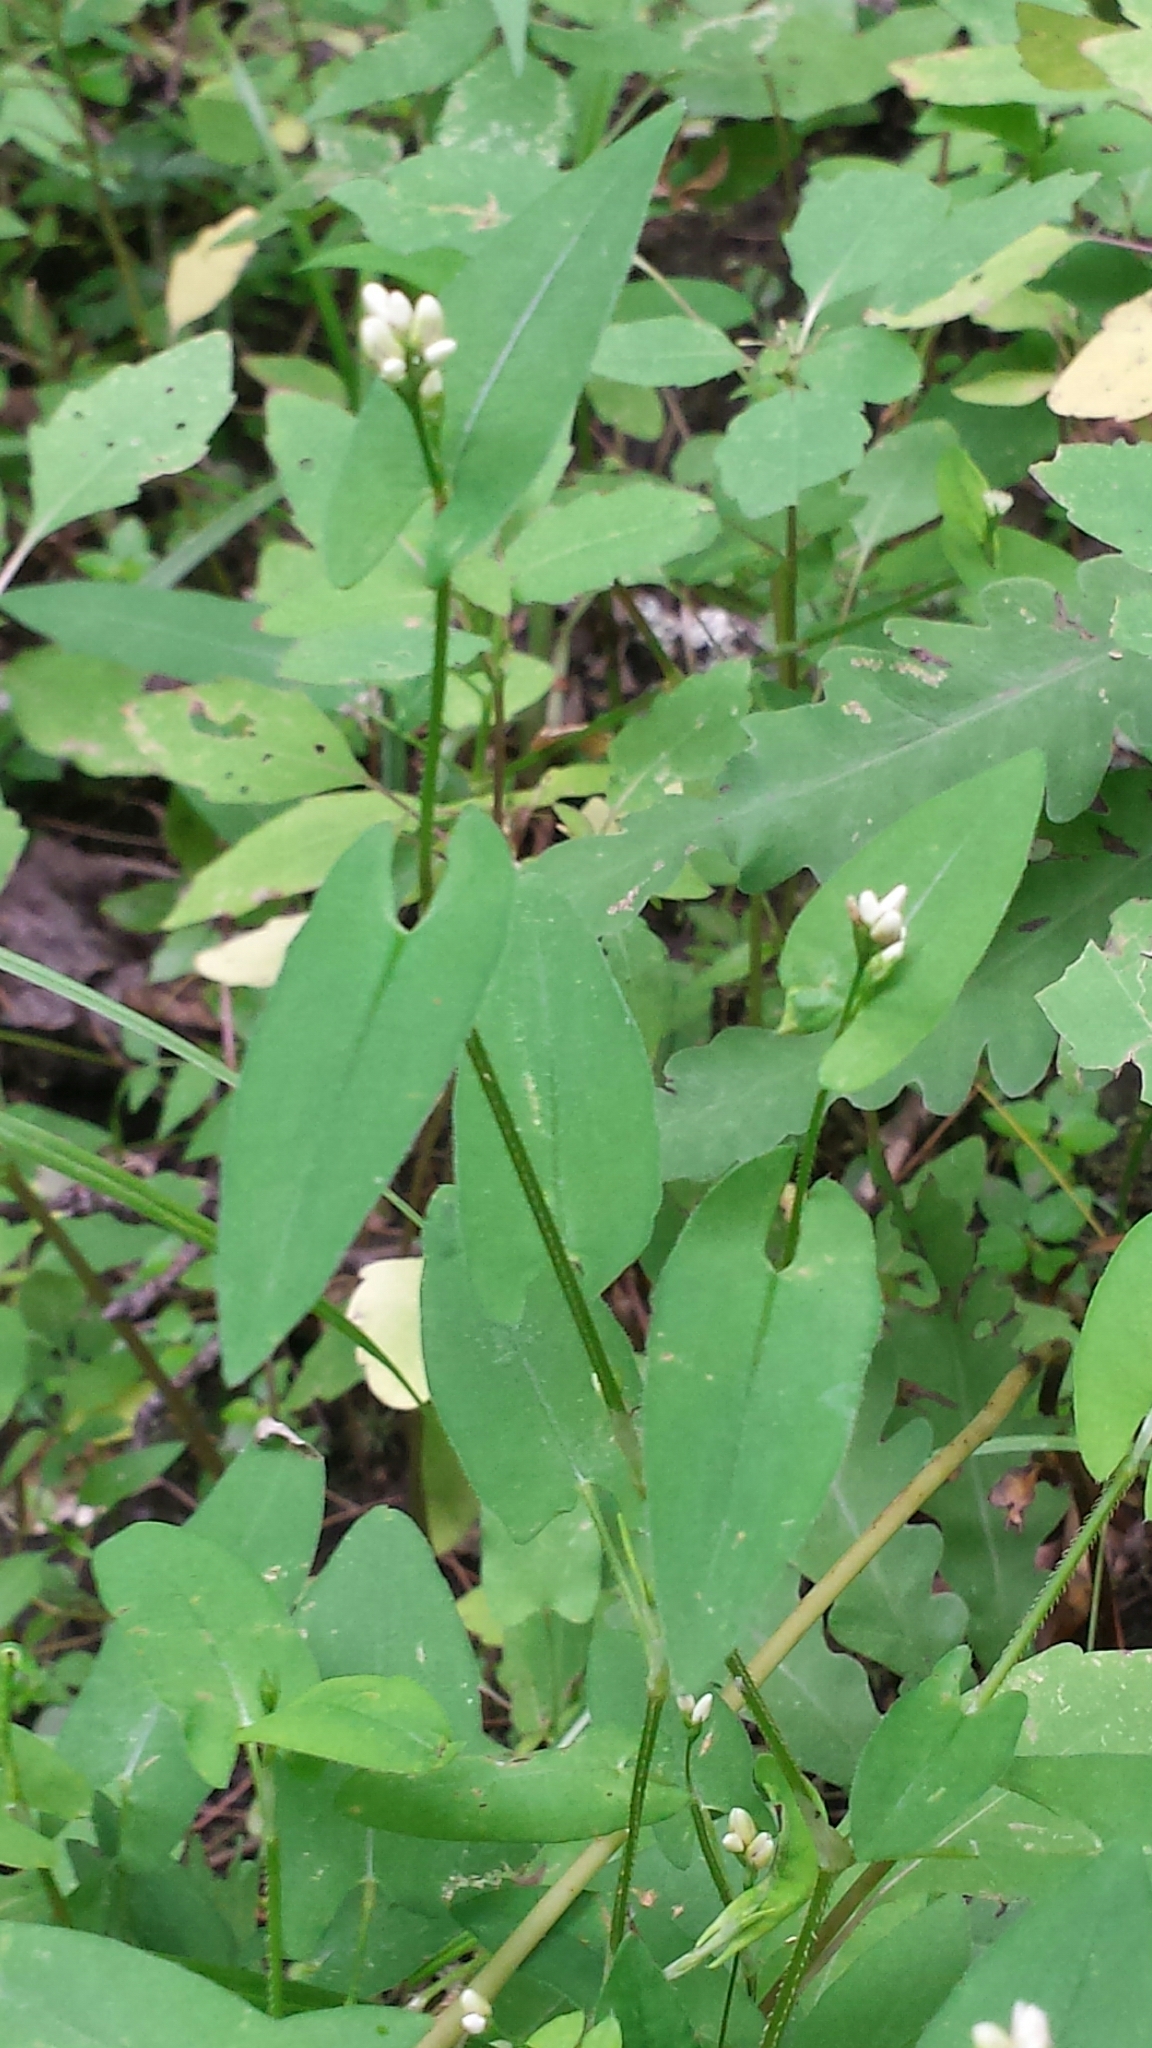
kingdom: Plantae
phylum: Tracheophyta
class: Magnoliopsida
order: Caryophyllales
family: Polygonaceae
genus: Persicaria
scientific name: Persicaria sagittata
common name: American tearthumb
